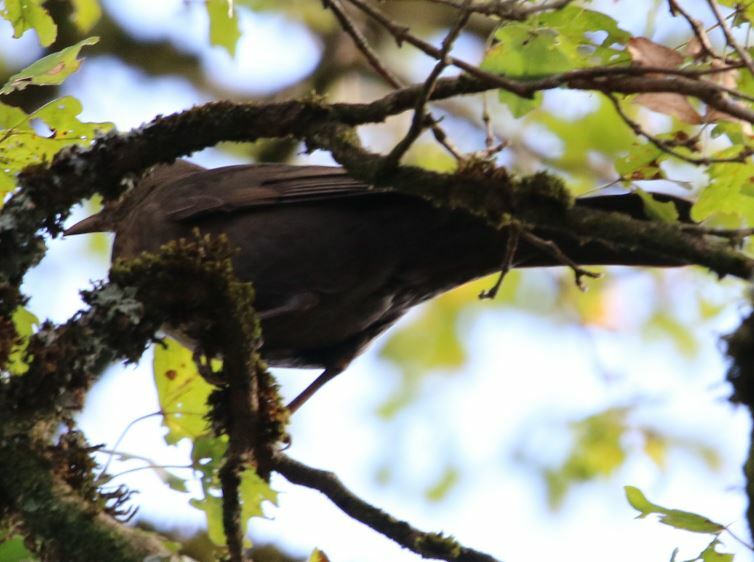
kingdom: Animalia
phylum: Chordata
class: Aves
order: Passeriformes
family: Turdidae
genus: Turdus
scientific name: Turdus merula
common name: Common blackbird
